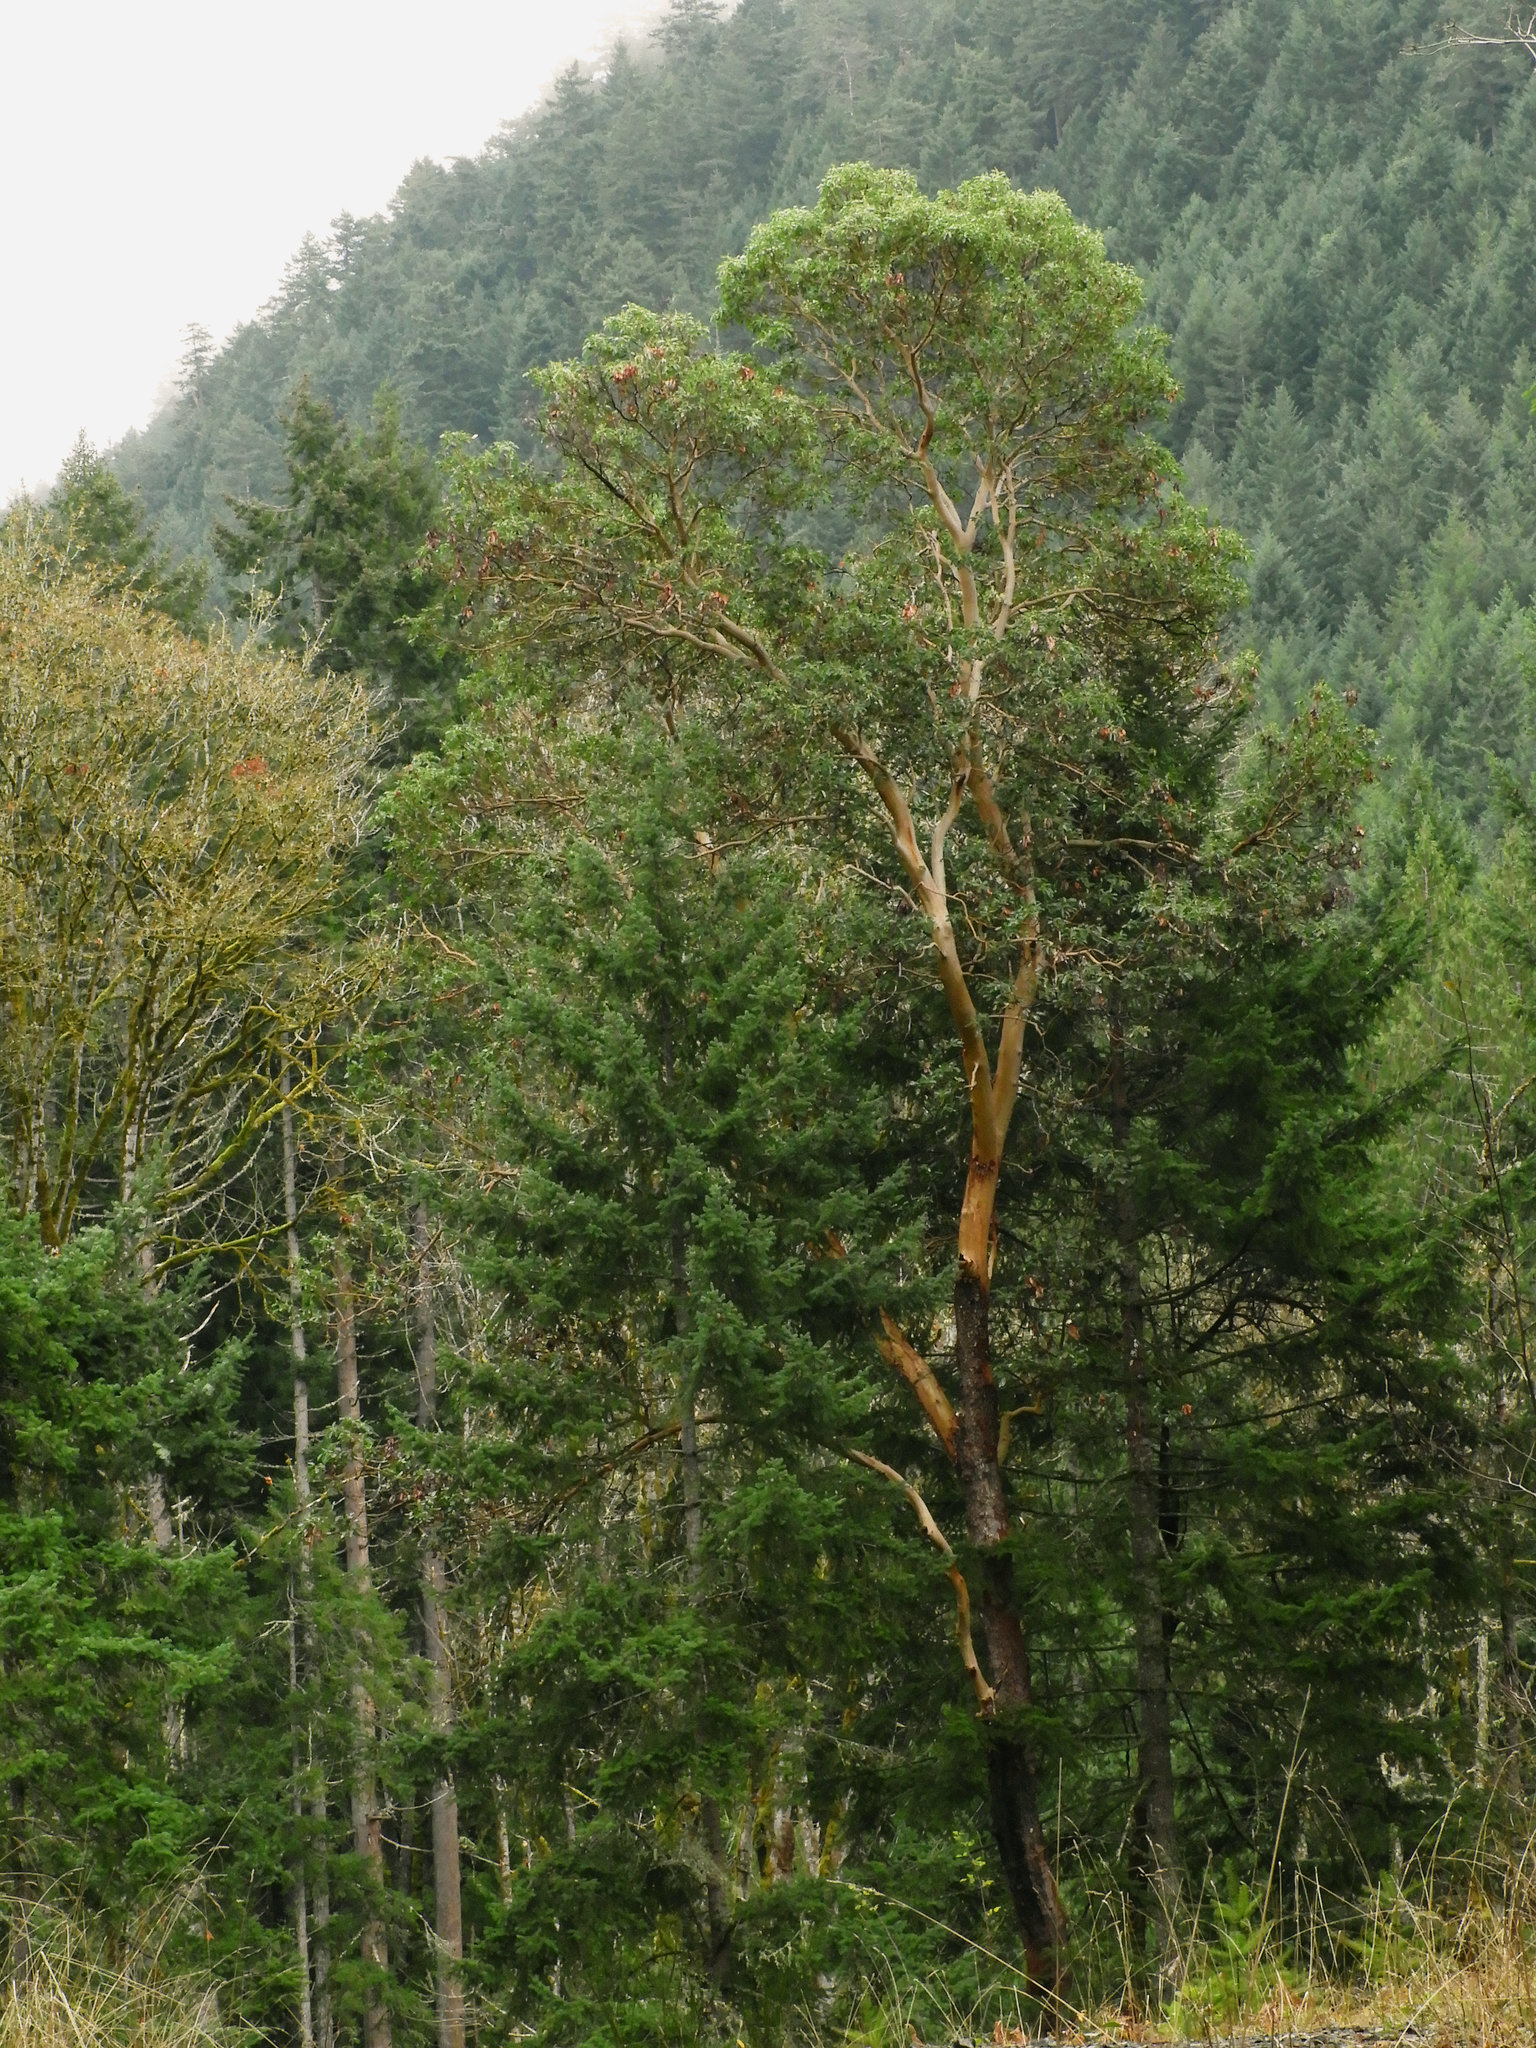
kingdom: Plantae
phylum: Tracheophyta
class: Magnoliopsida
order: Ericales
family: Ericaceae
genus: Arbutus
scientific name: Arbutus menziesii
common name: Pacific madrone
